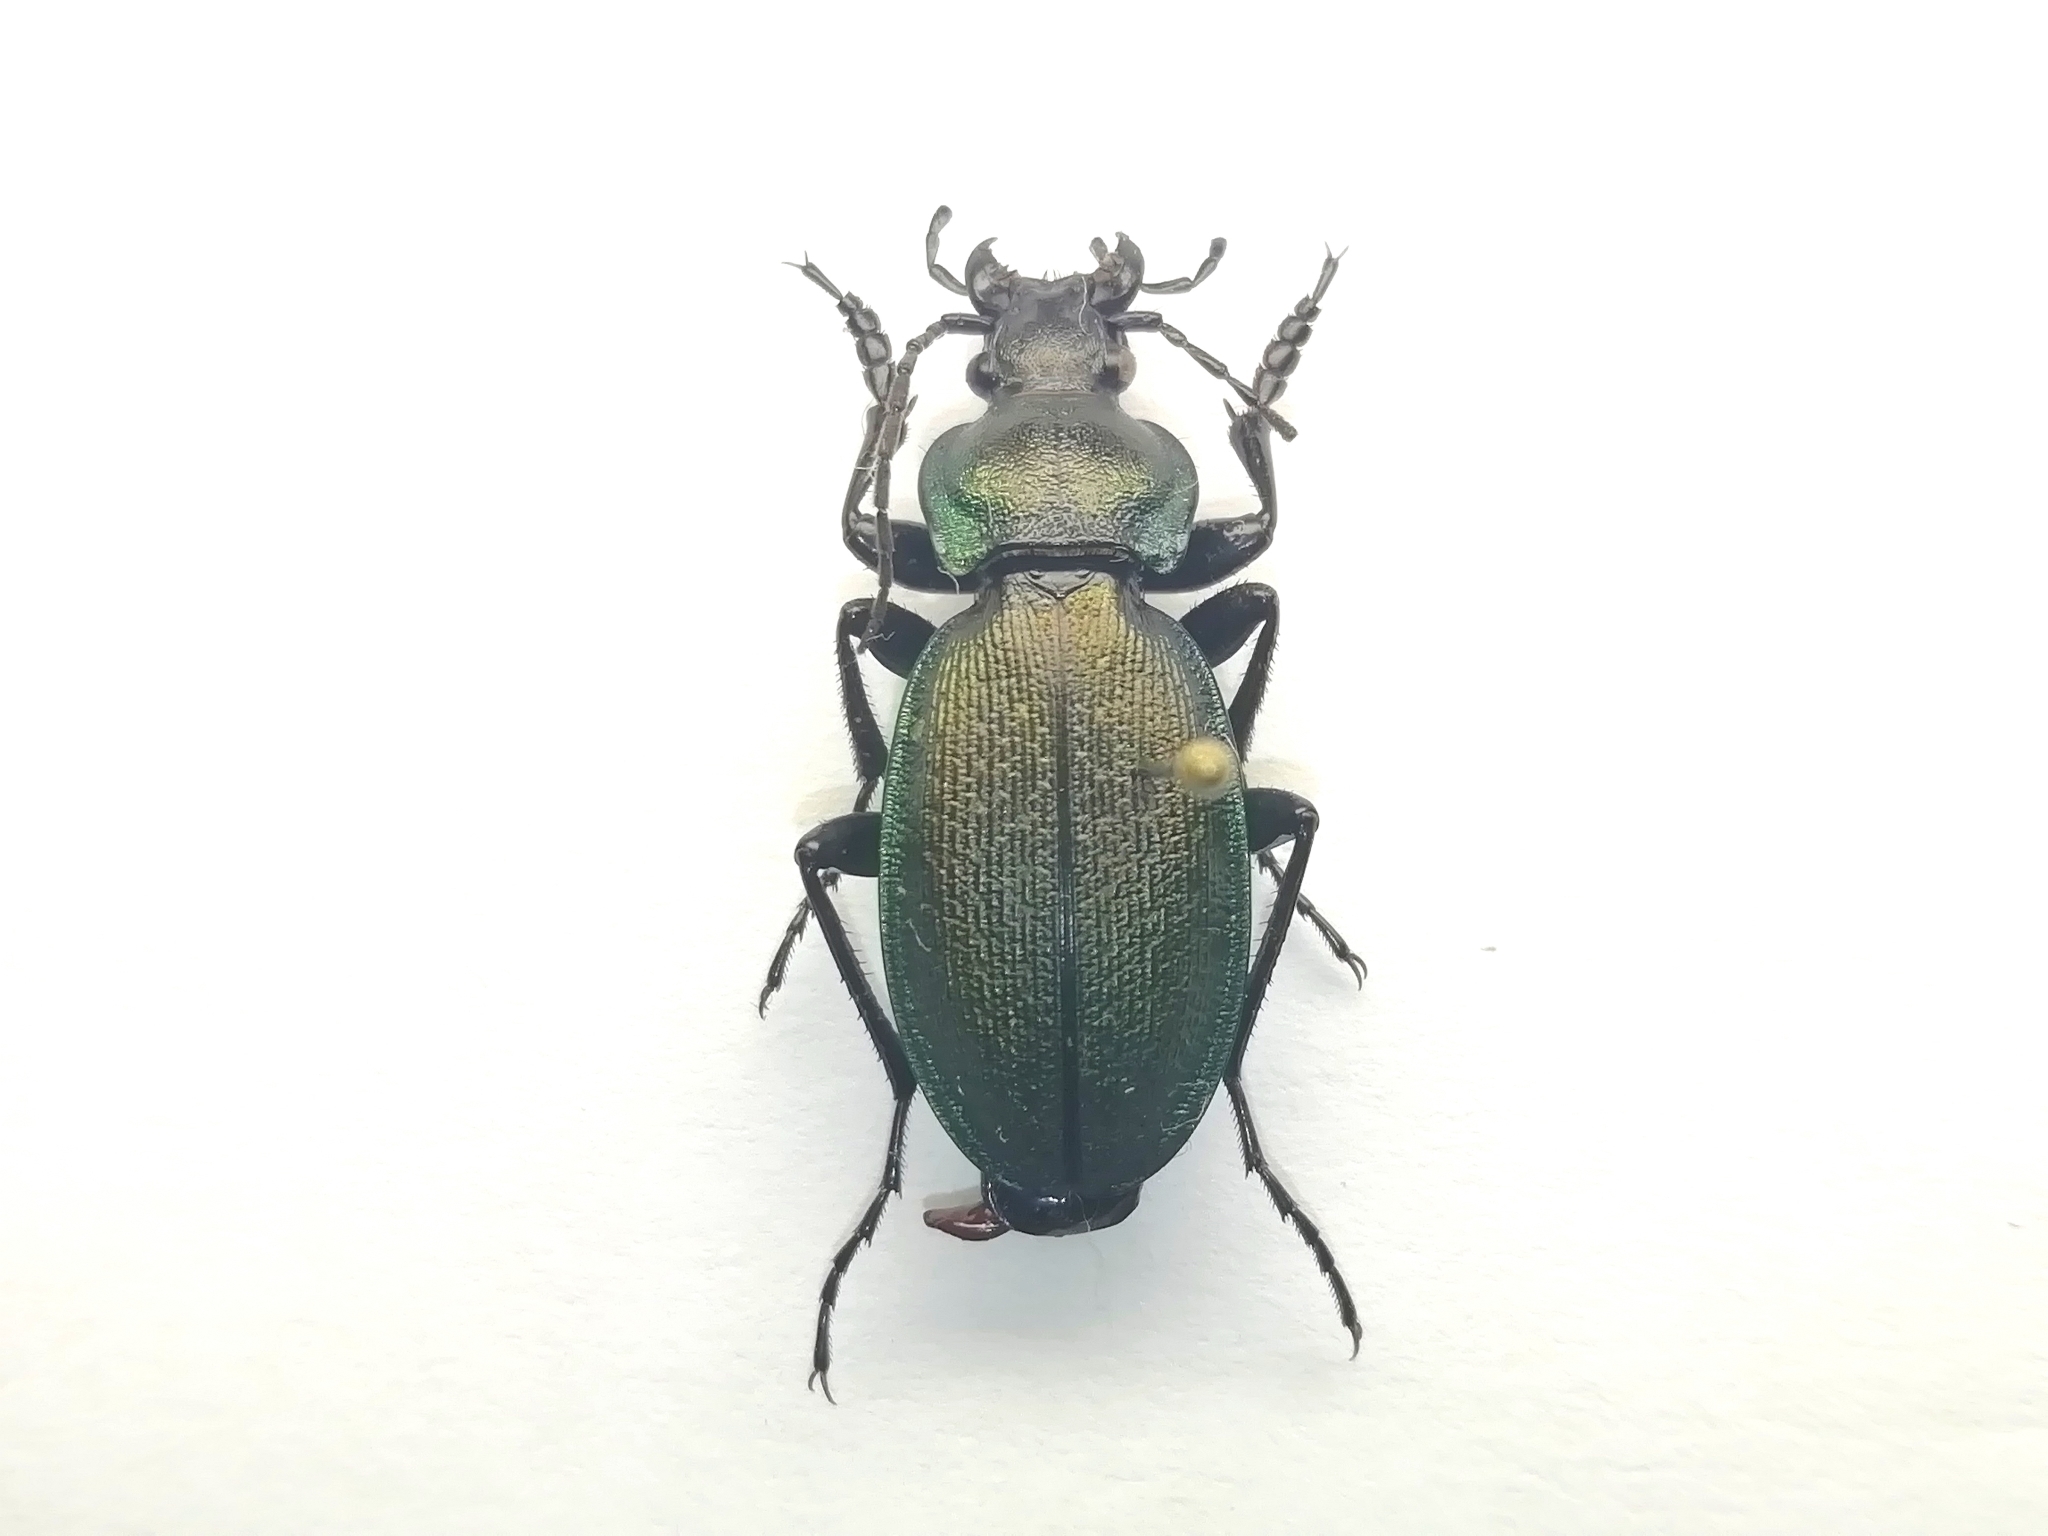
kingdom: Animalia
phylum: Arthropoda
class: Insecta
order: Coleoptera
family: Carabidae
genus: Carabus
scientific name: Carabus regalis
